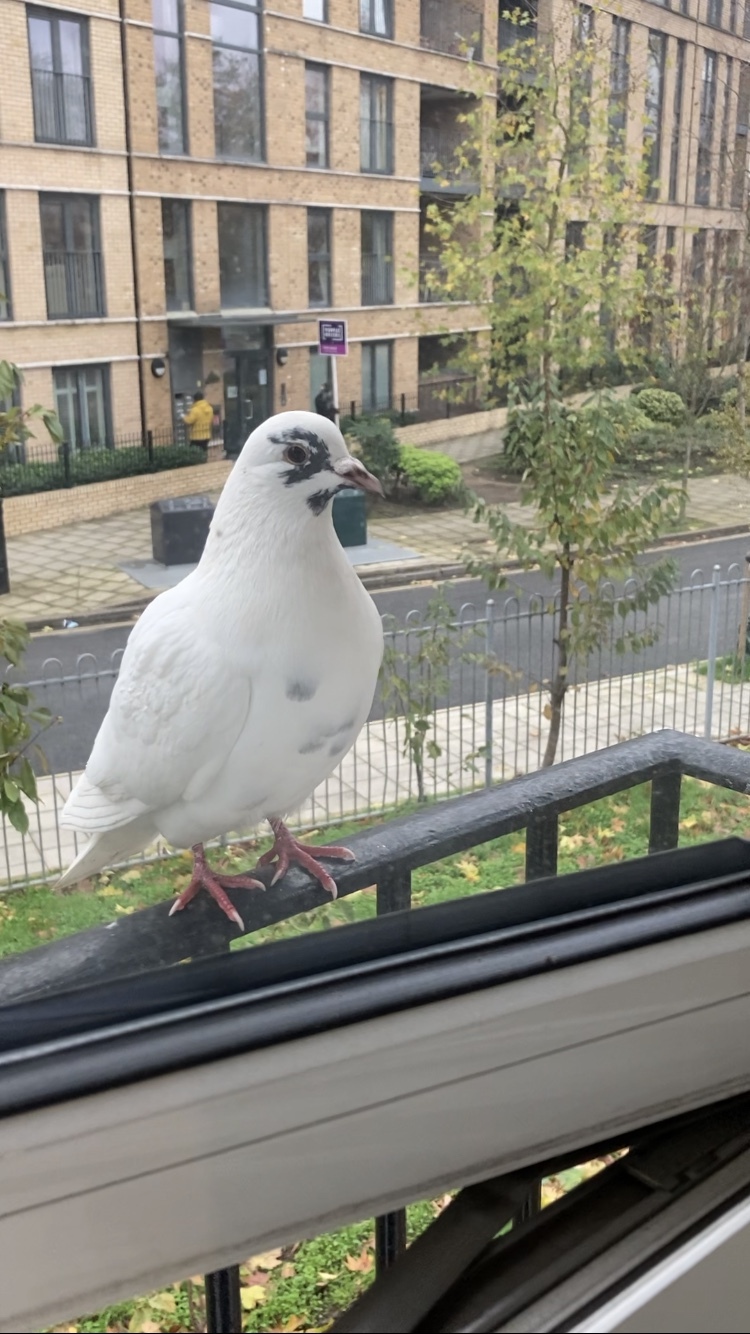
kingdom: Animalia
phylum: Chordata
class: Aves
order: Columbiformes
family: Columbidae
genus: Columba
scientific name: Columba livia
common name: Rock pigeon
